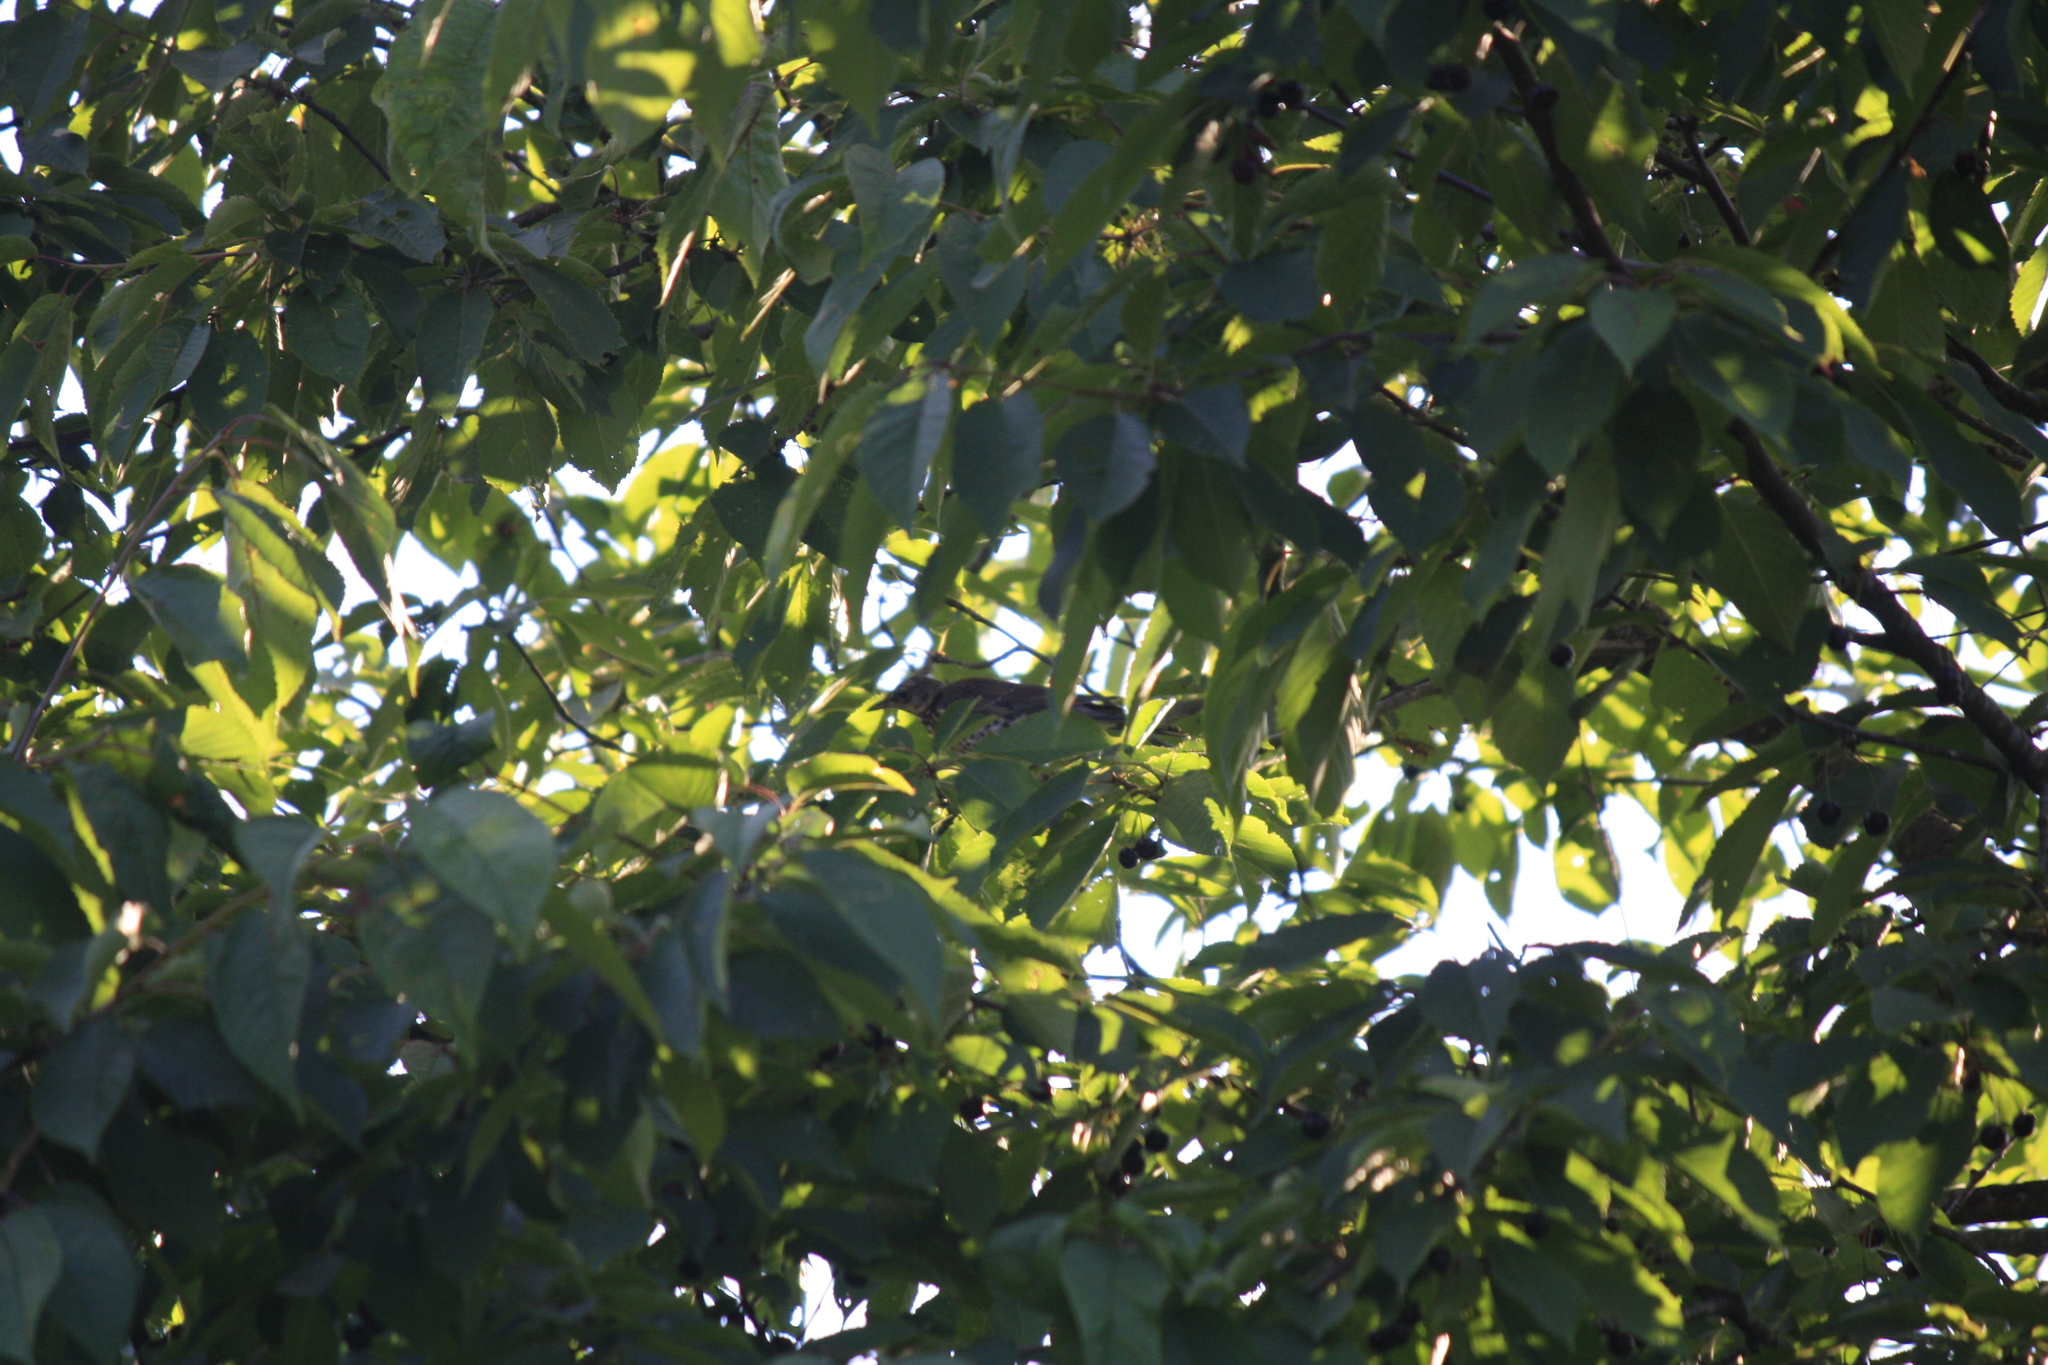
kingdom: Animalia
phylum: Chordata
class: Aves
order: Passeriformes
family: Turdidae
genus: Turdus
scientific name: Turdus pilaris
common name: Fieldfare
